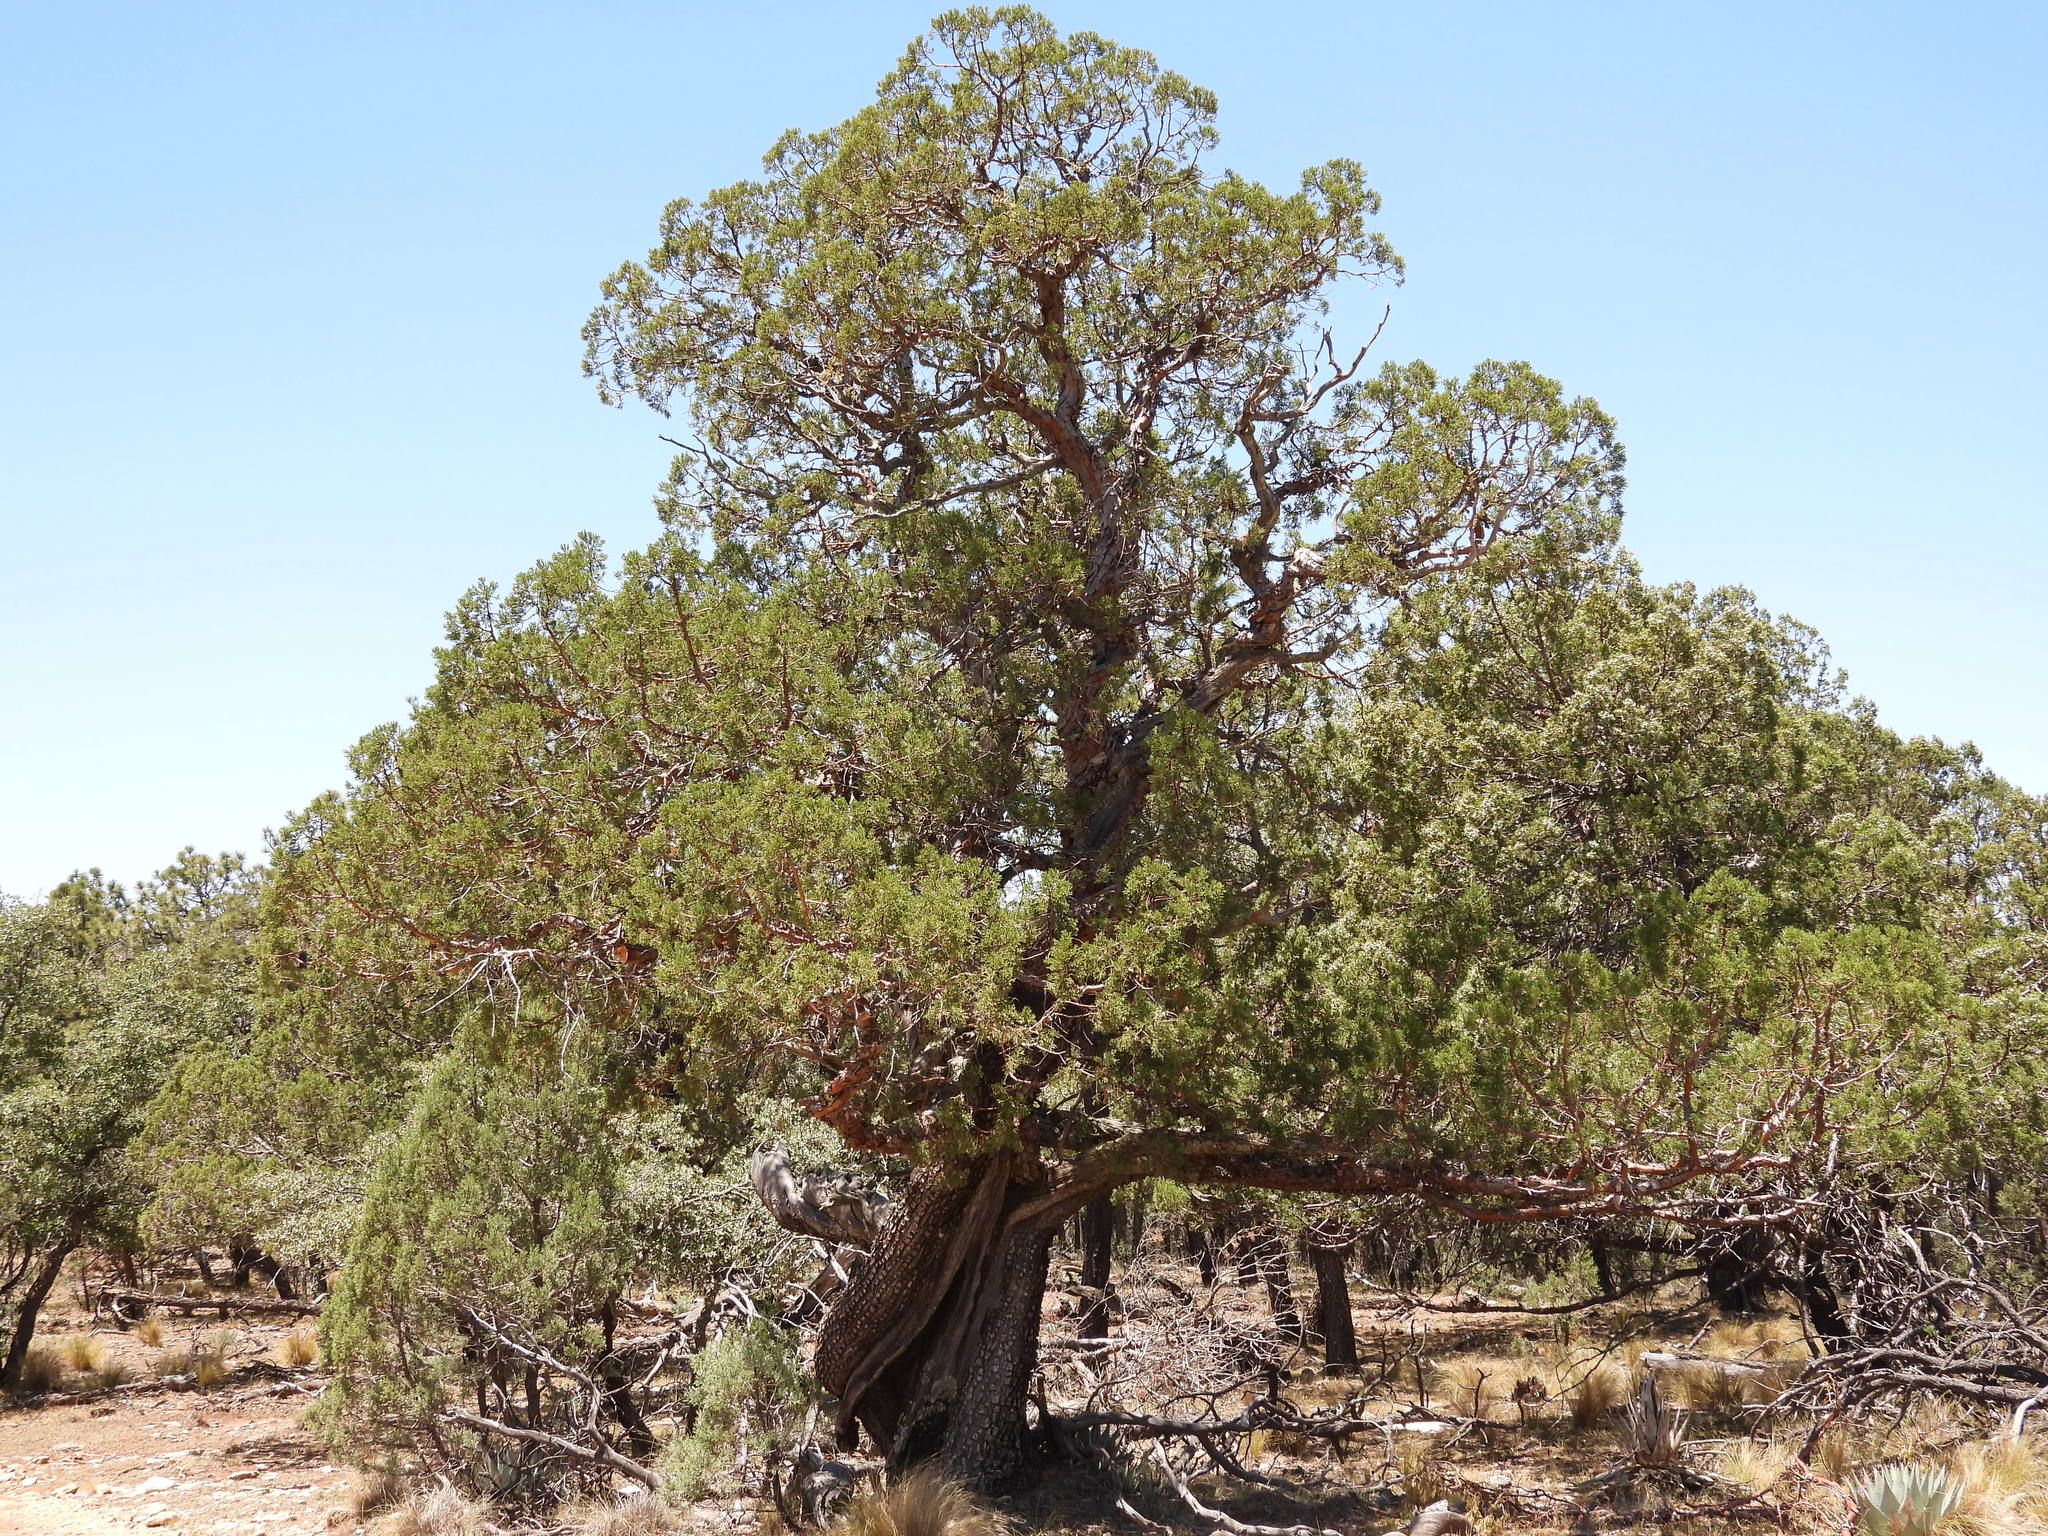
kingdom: Plantae
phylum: Tracheophyta
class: Pinopsida
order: Pinales
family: Cupressaceae
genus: Juniperus
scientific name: Juniperus deppeana
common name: Alligator juniper
